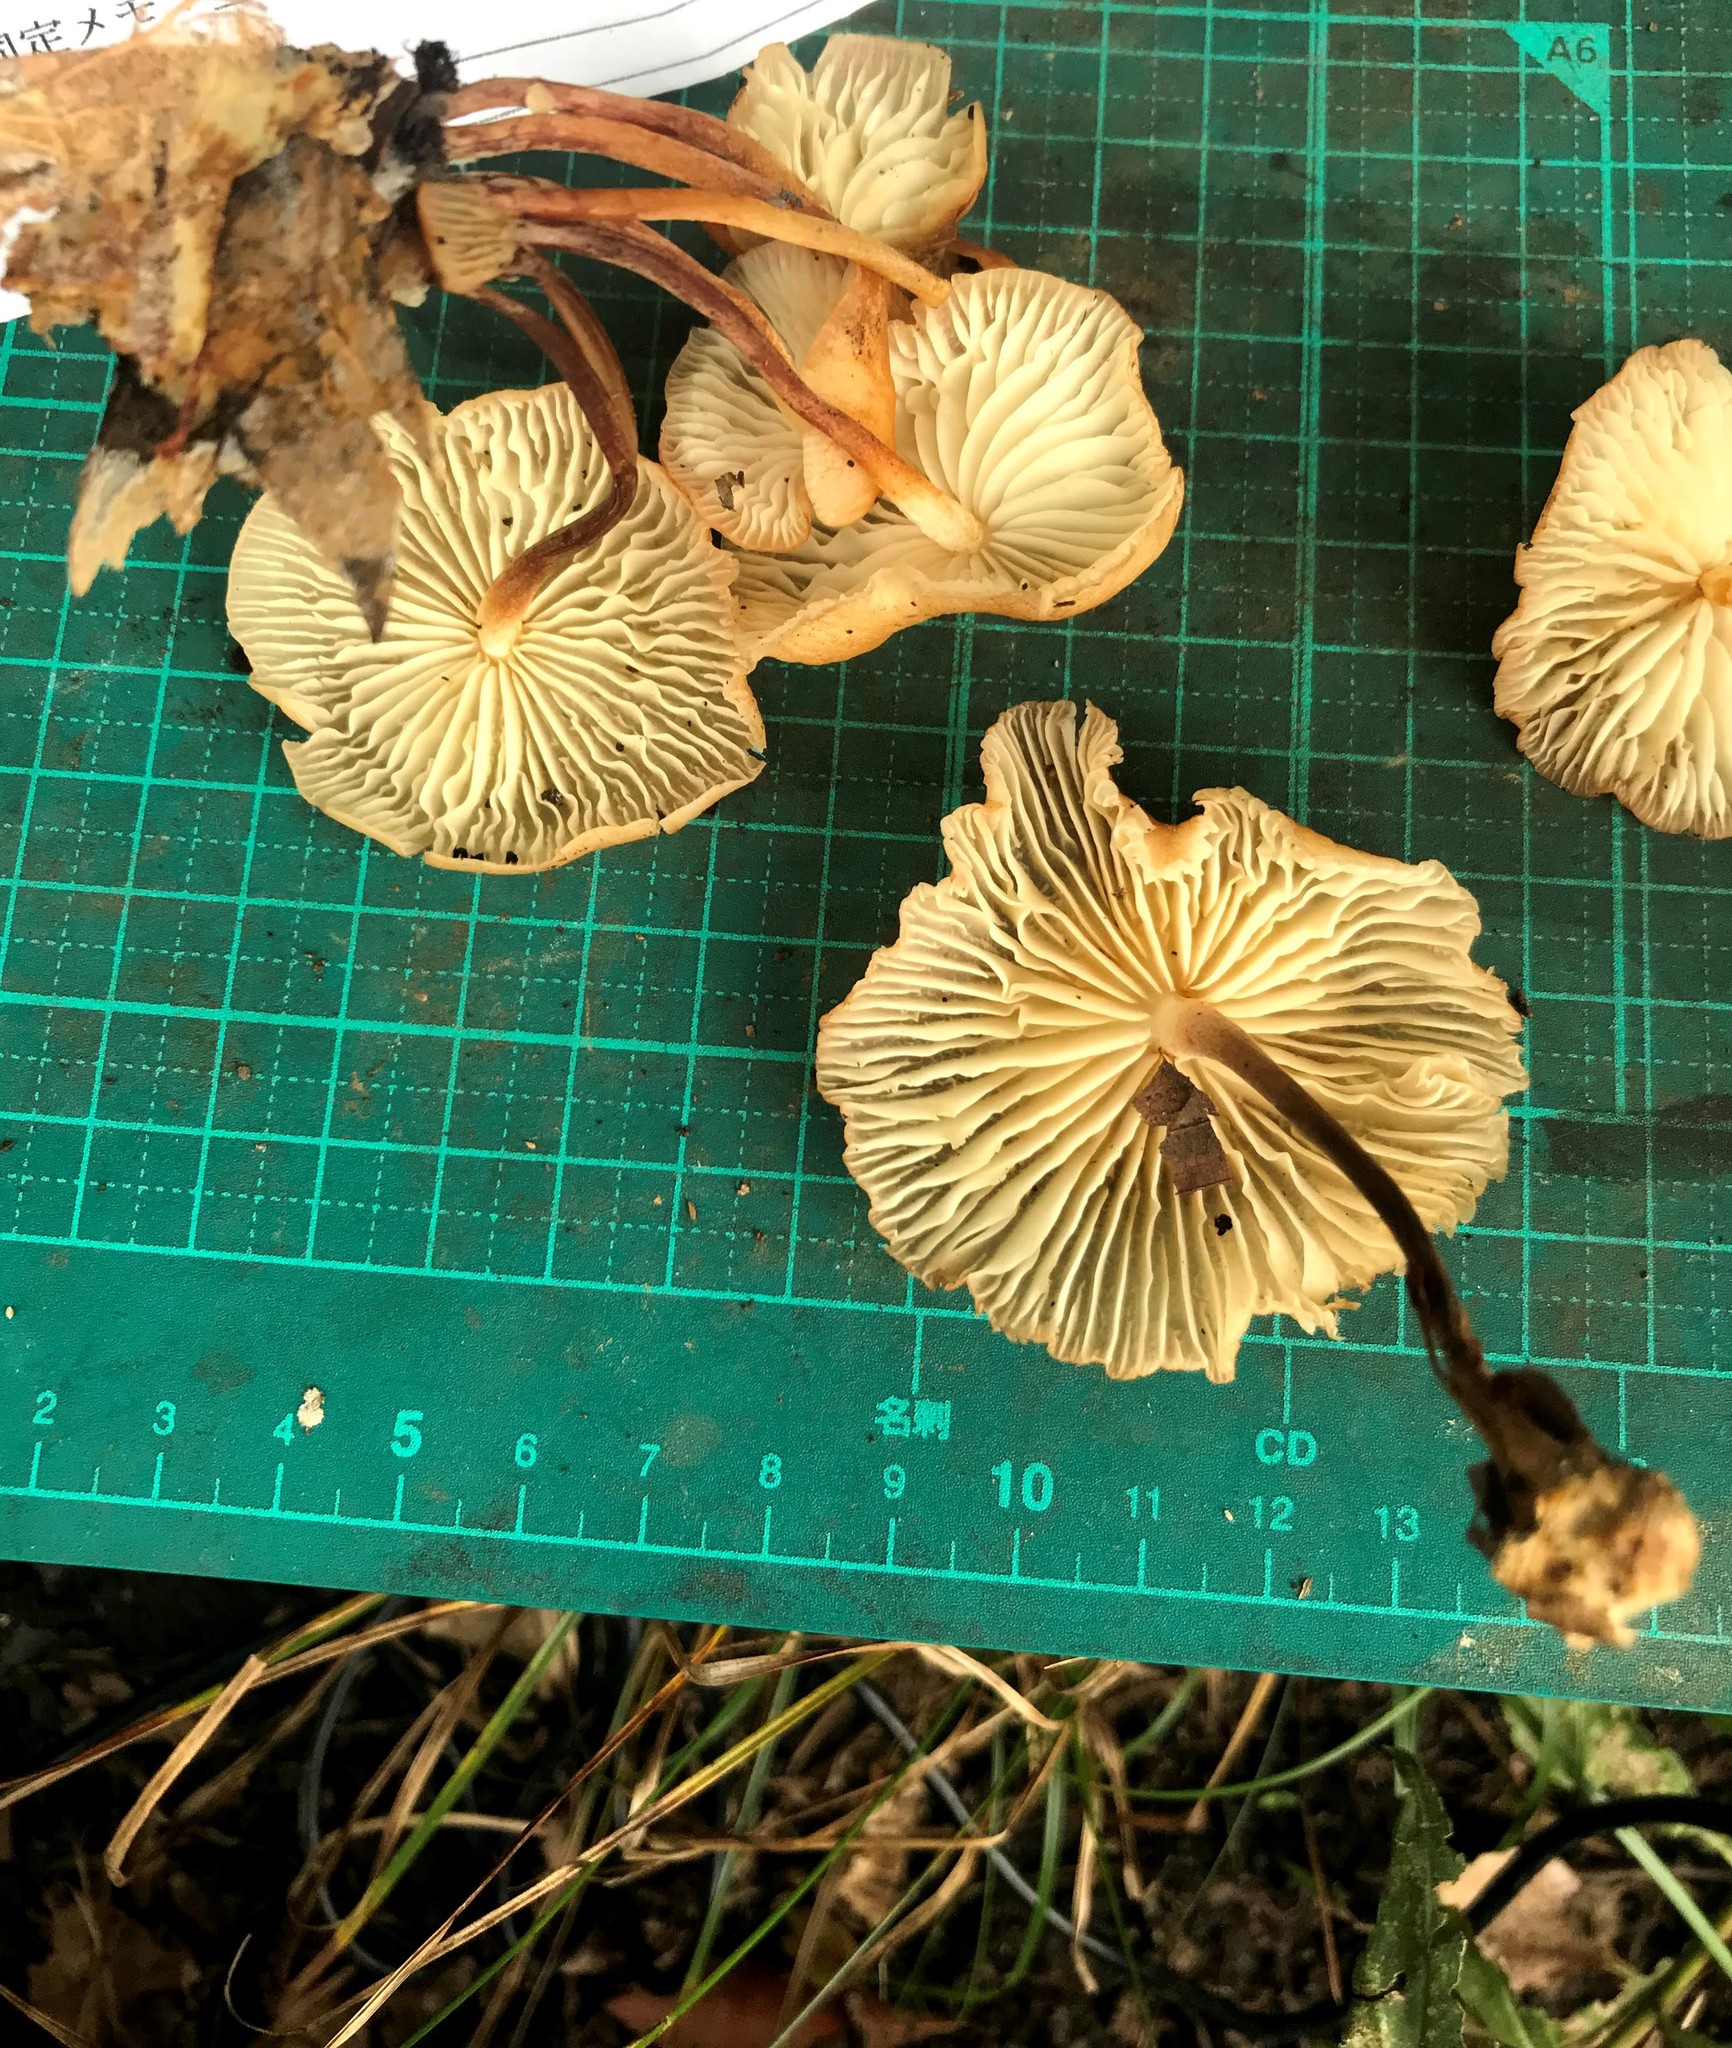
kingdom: Fungi
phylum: Basidiomycota
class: Agaricomycetes
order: Agaricales
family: Marasmiaceae
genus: Marasmius
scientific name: Marasmius maculosus
